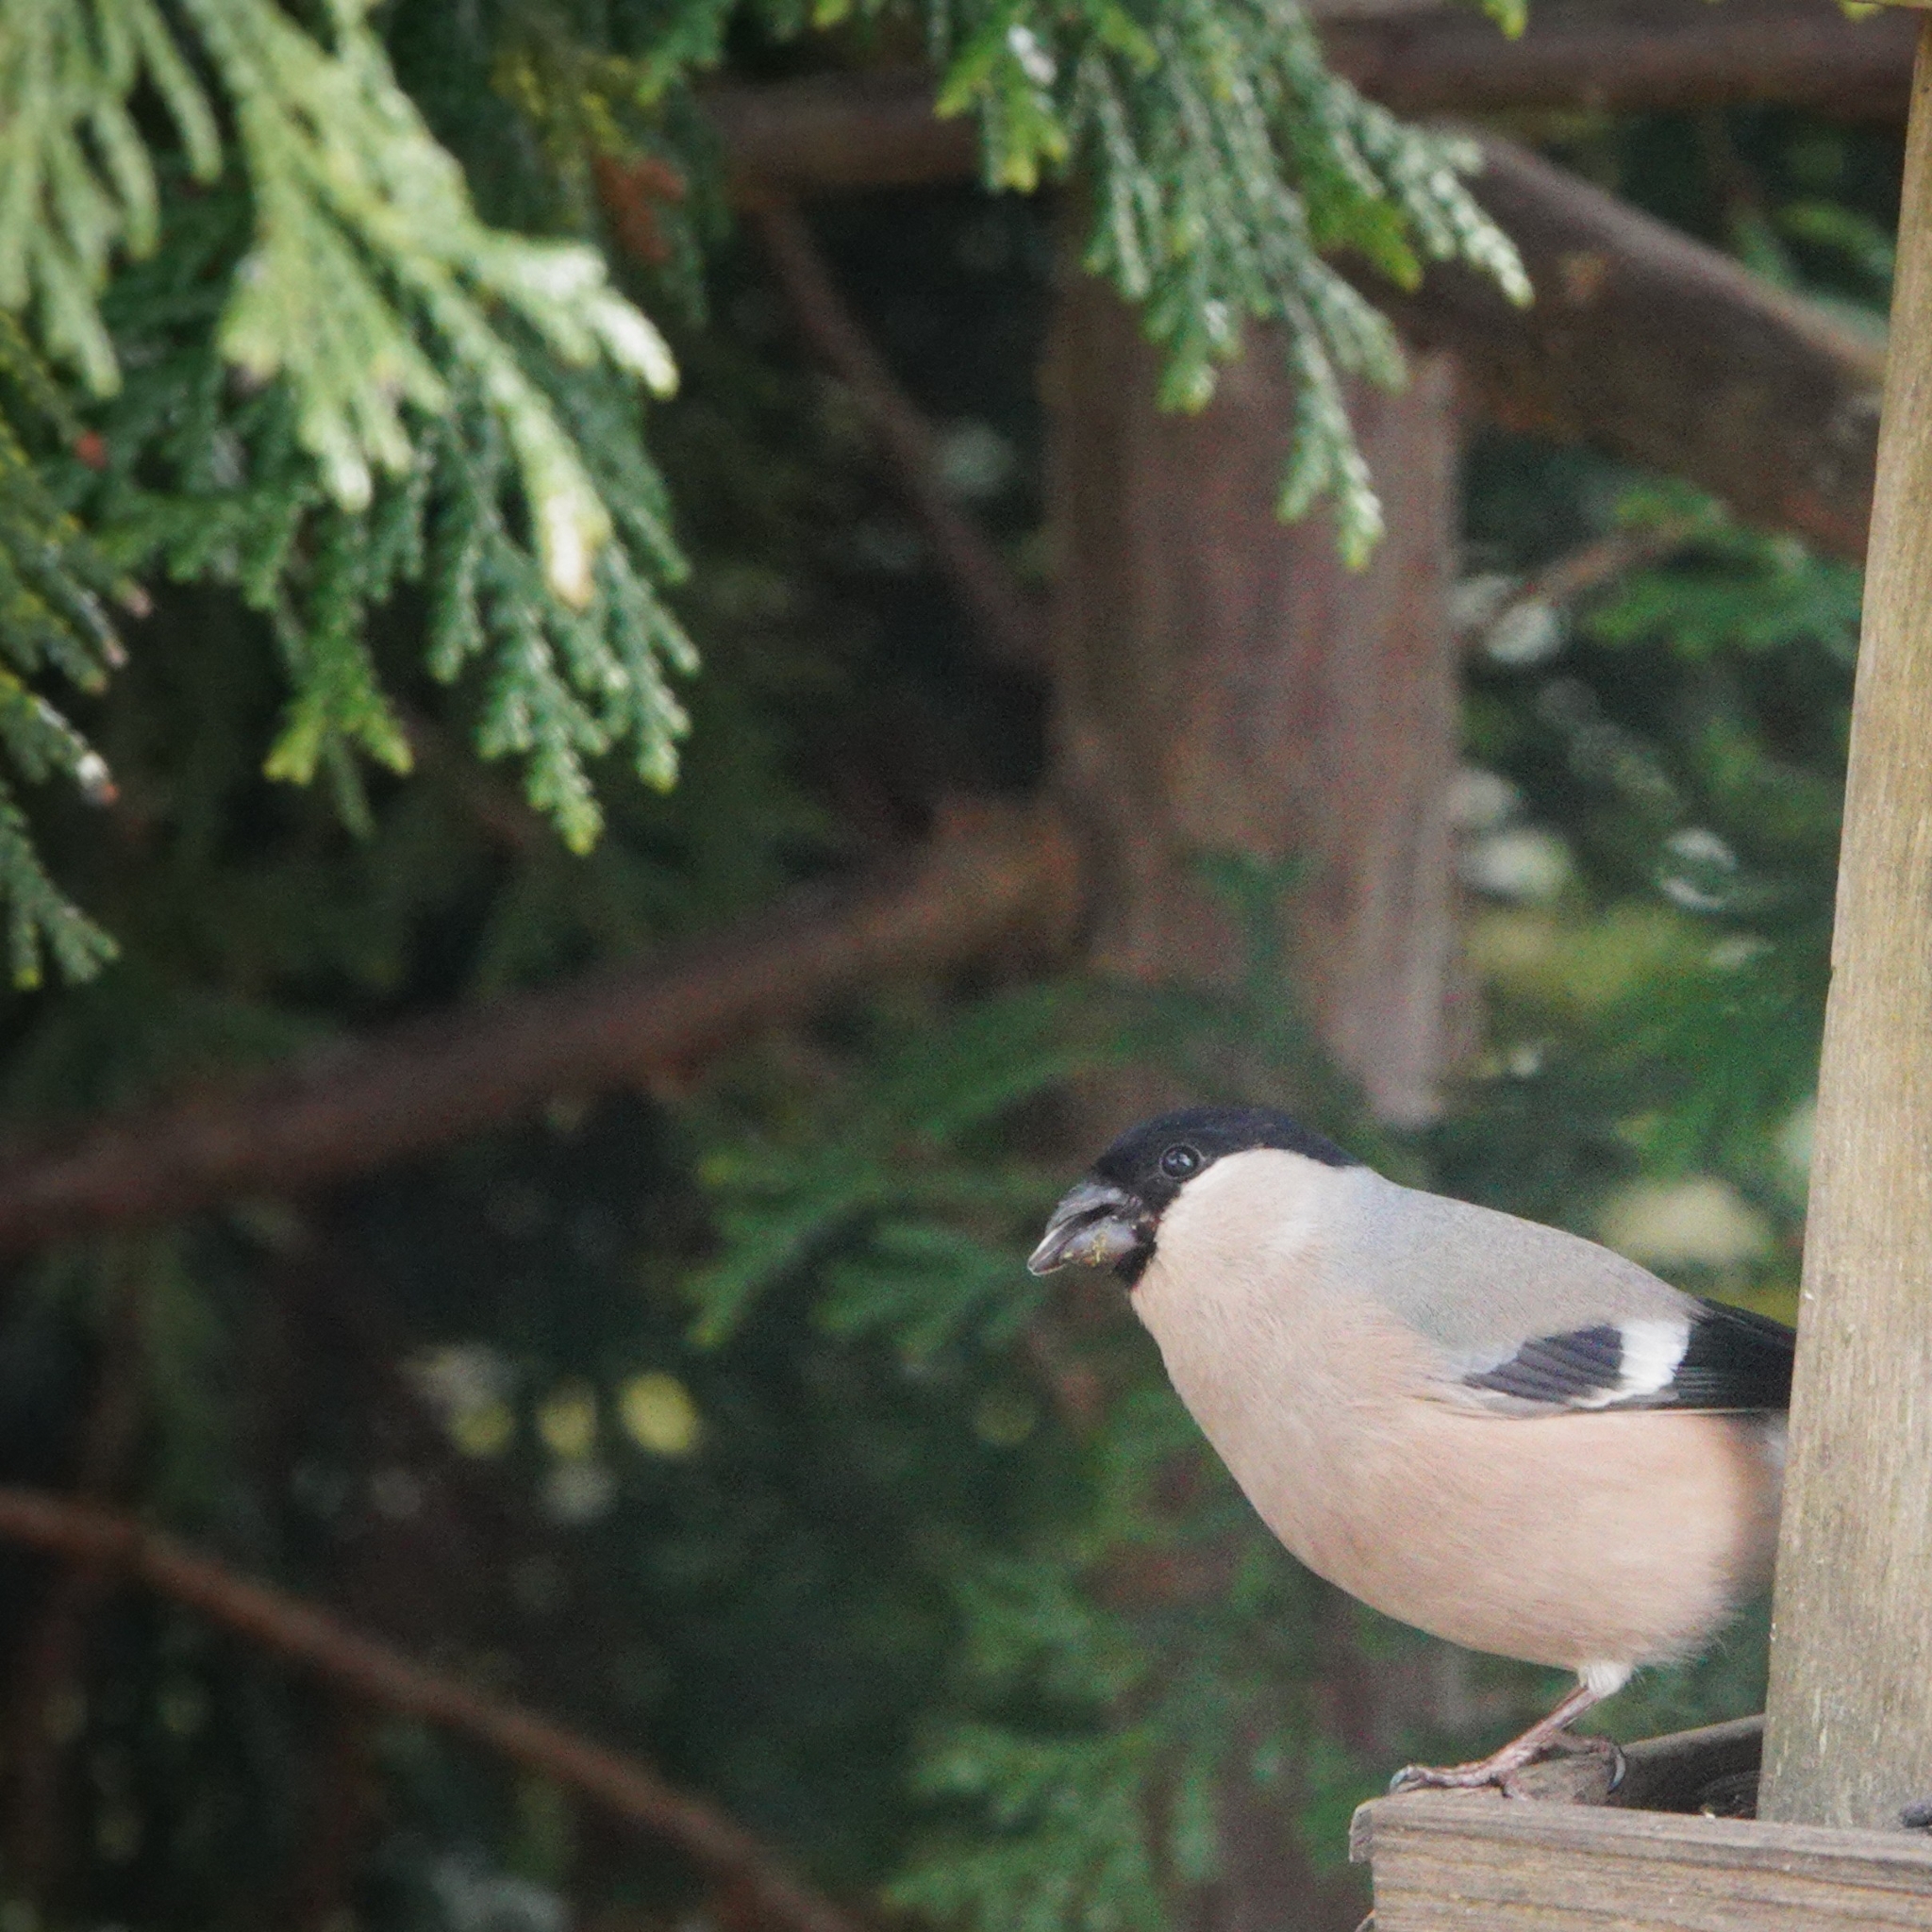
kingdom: Animalia
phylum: Chordata
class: Aves
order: Passeriformes
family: Fringillidae
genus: Pyrrhula
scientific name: Pyrrhula pyrrhula
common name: Eurasian bullfinch
